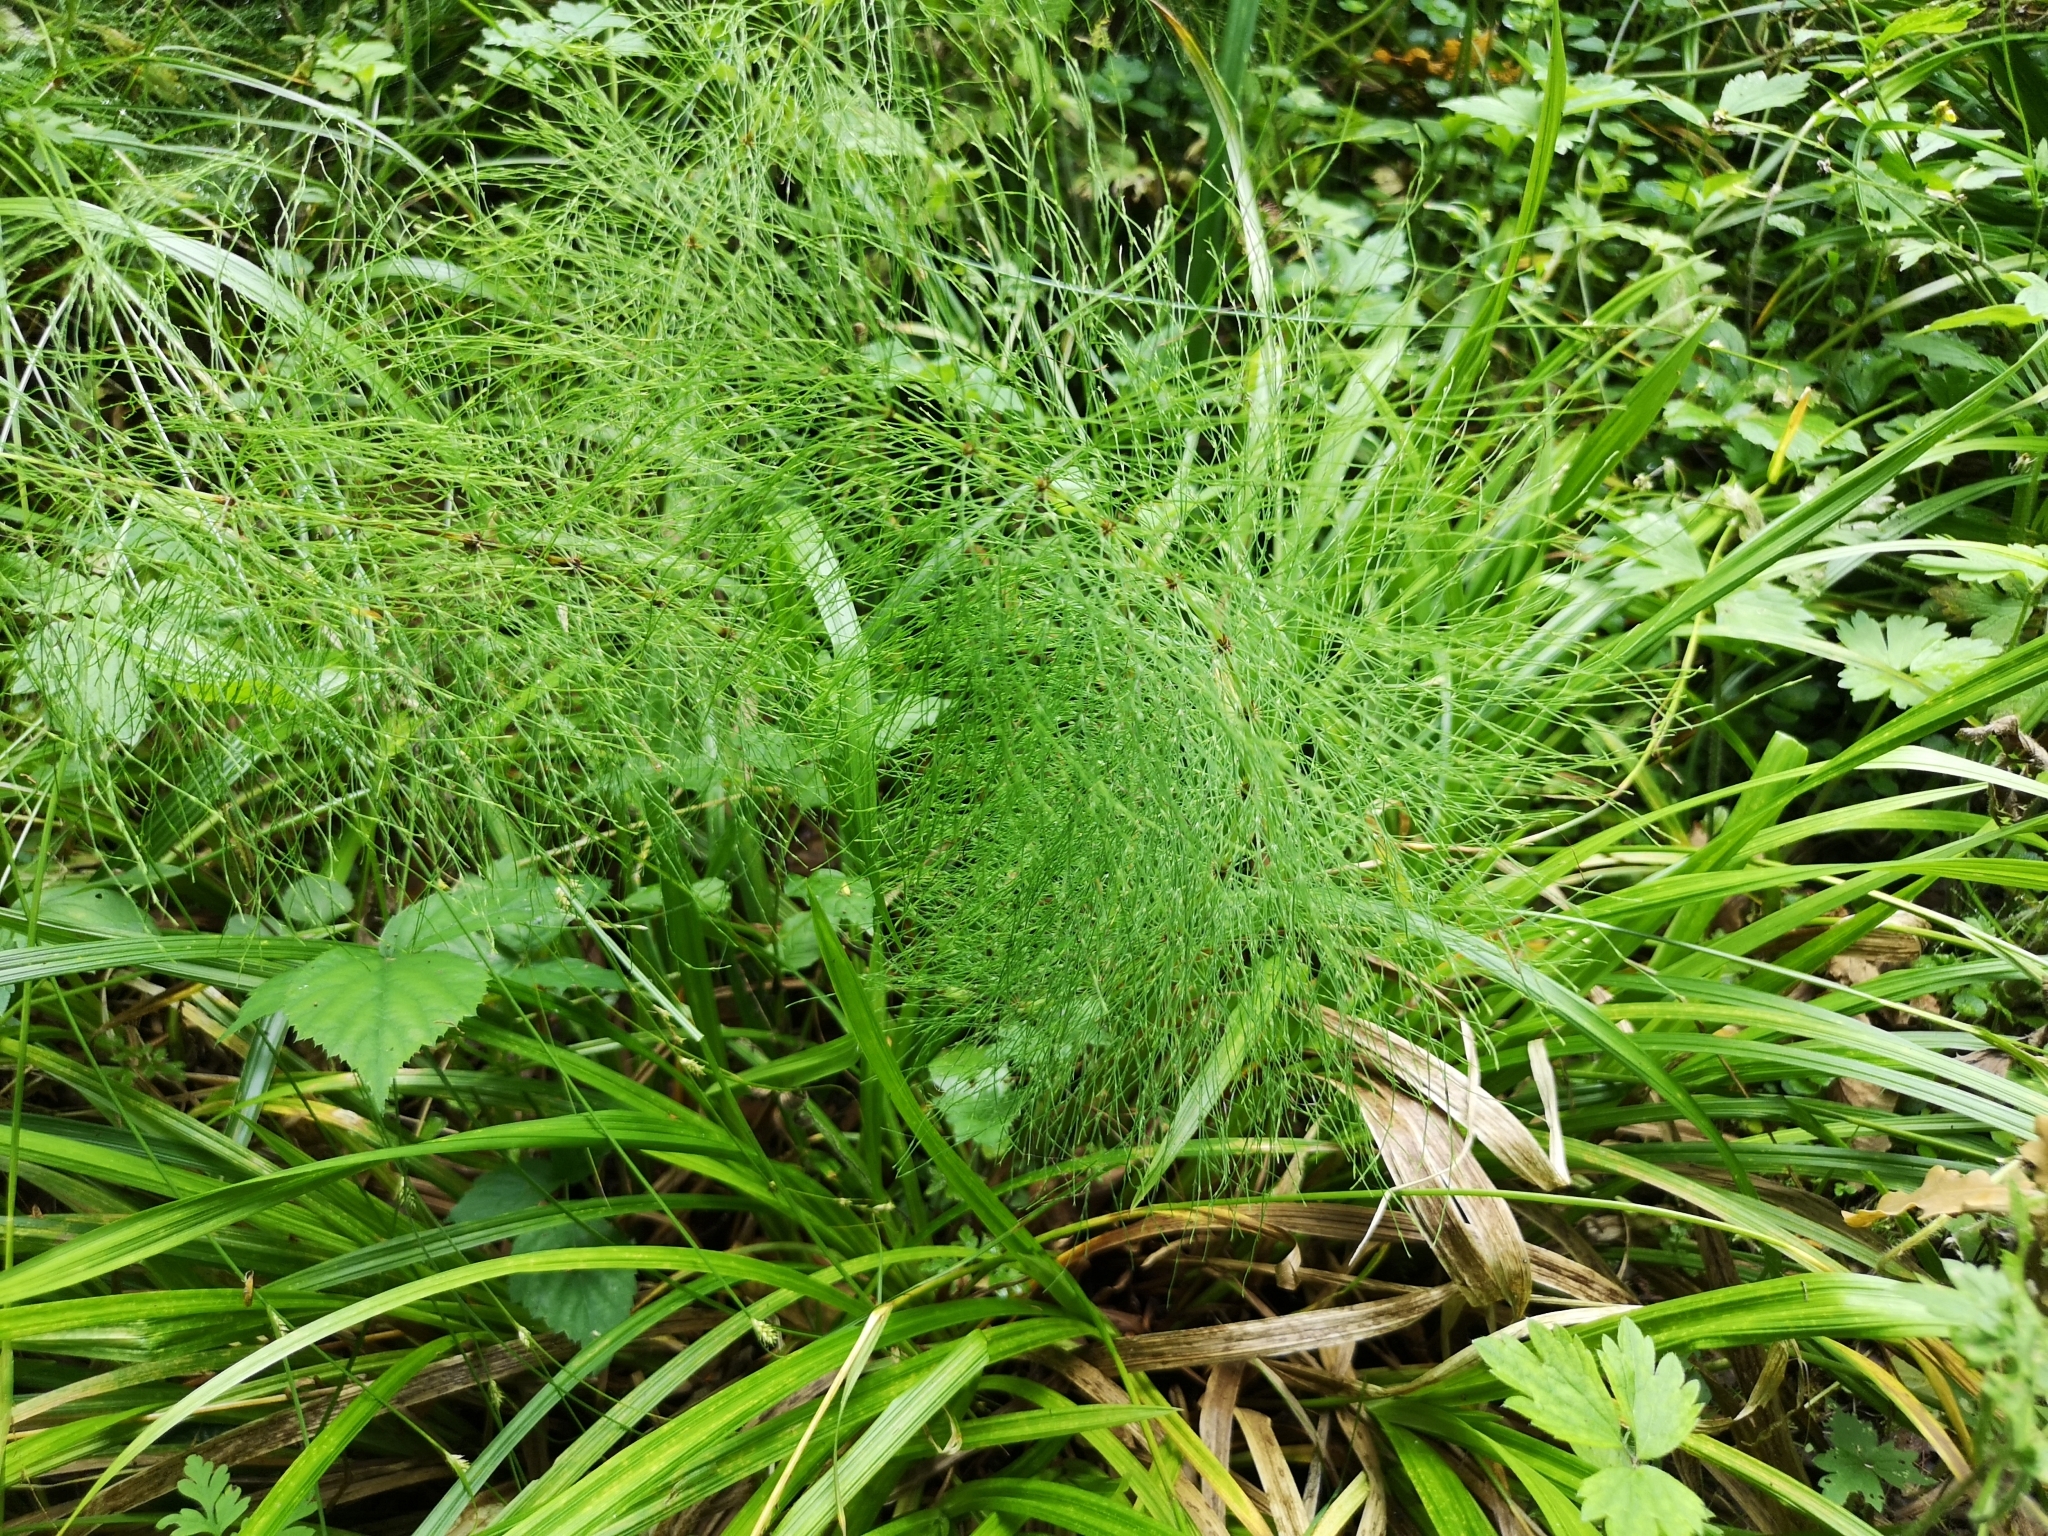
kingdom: Plantae
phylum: Tracheophyta
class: Polypodiopsida
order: Equisetales
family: Equisetaceae
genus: Equisetum
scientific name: Equisetum sylvaticum
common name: Wood horsetail
